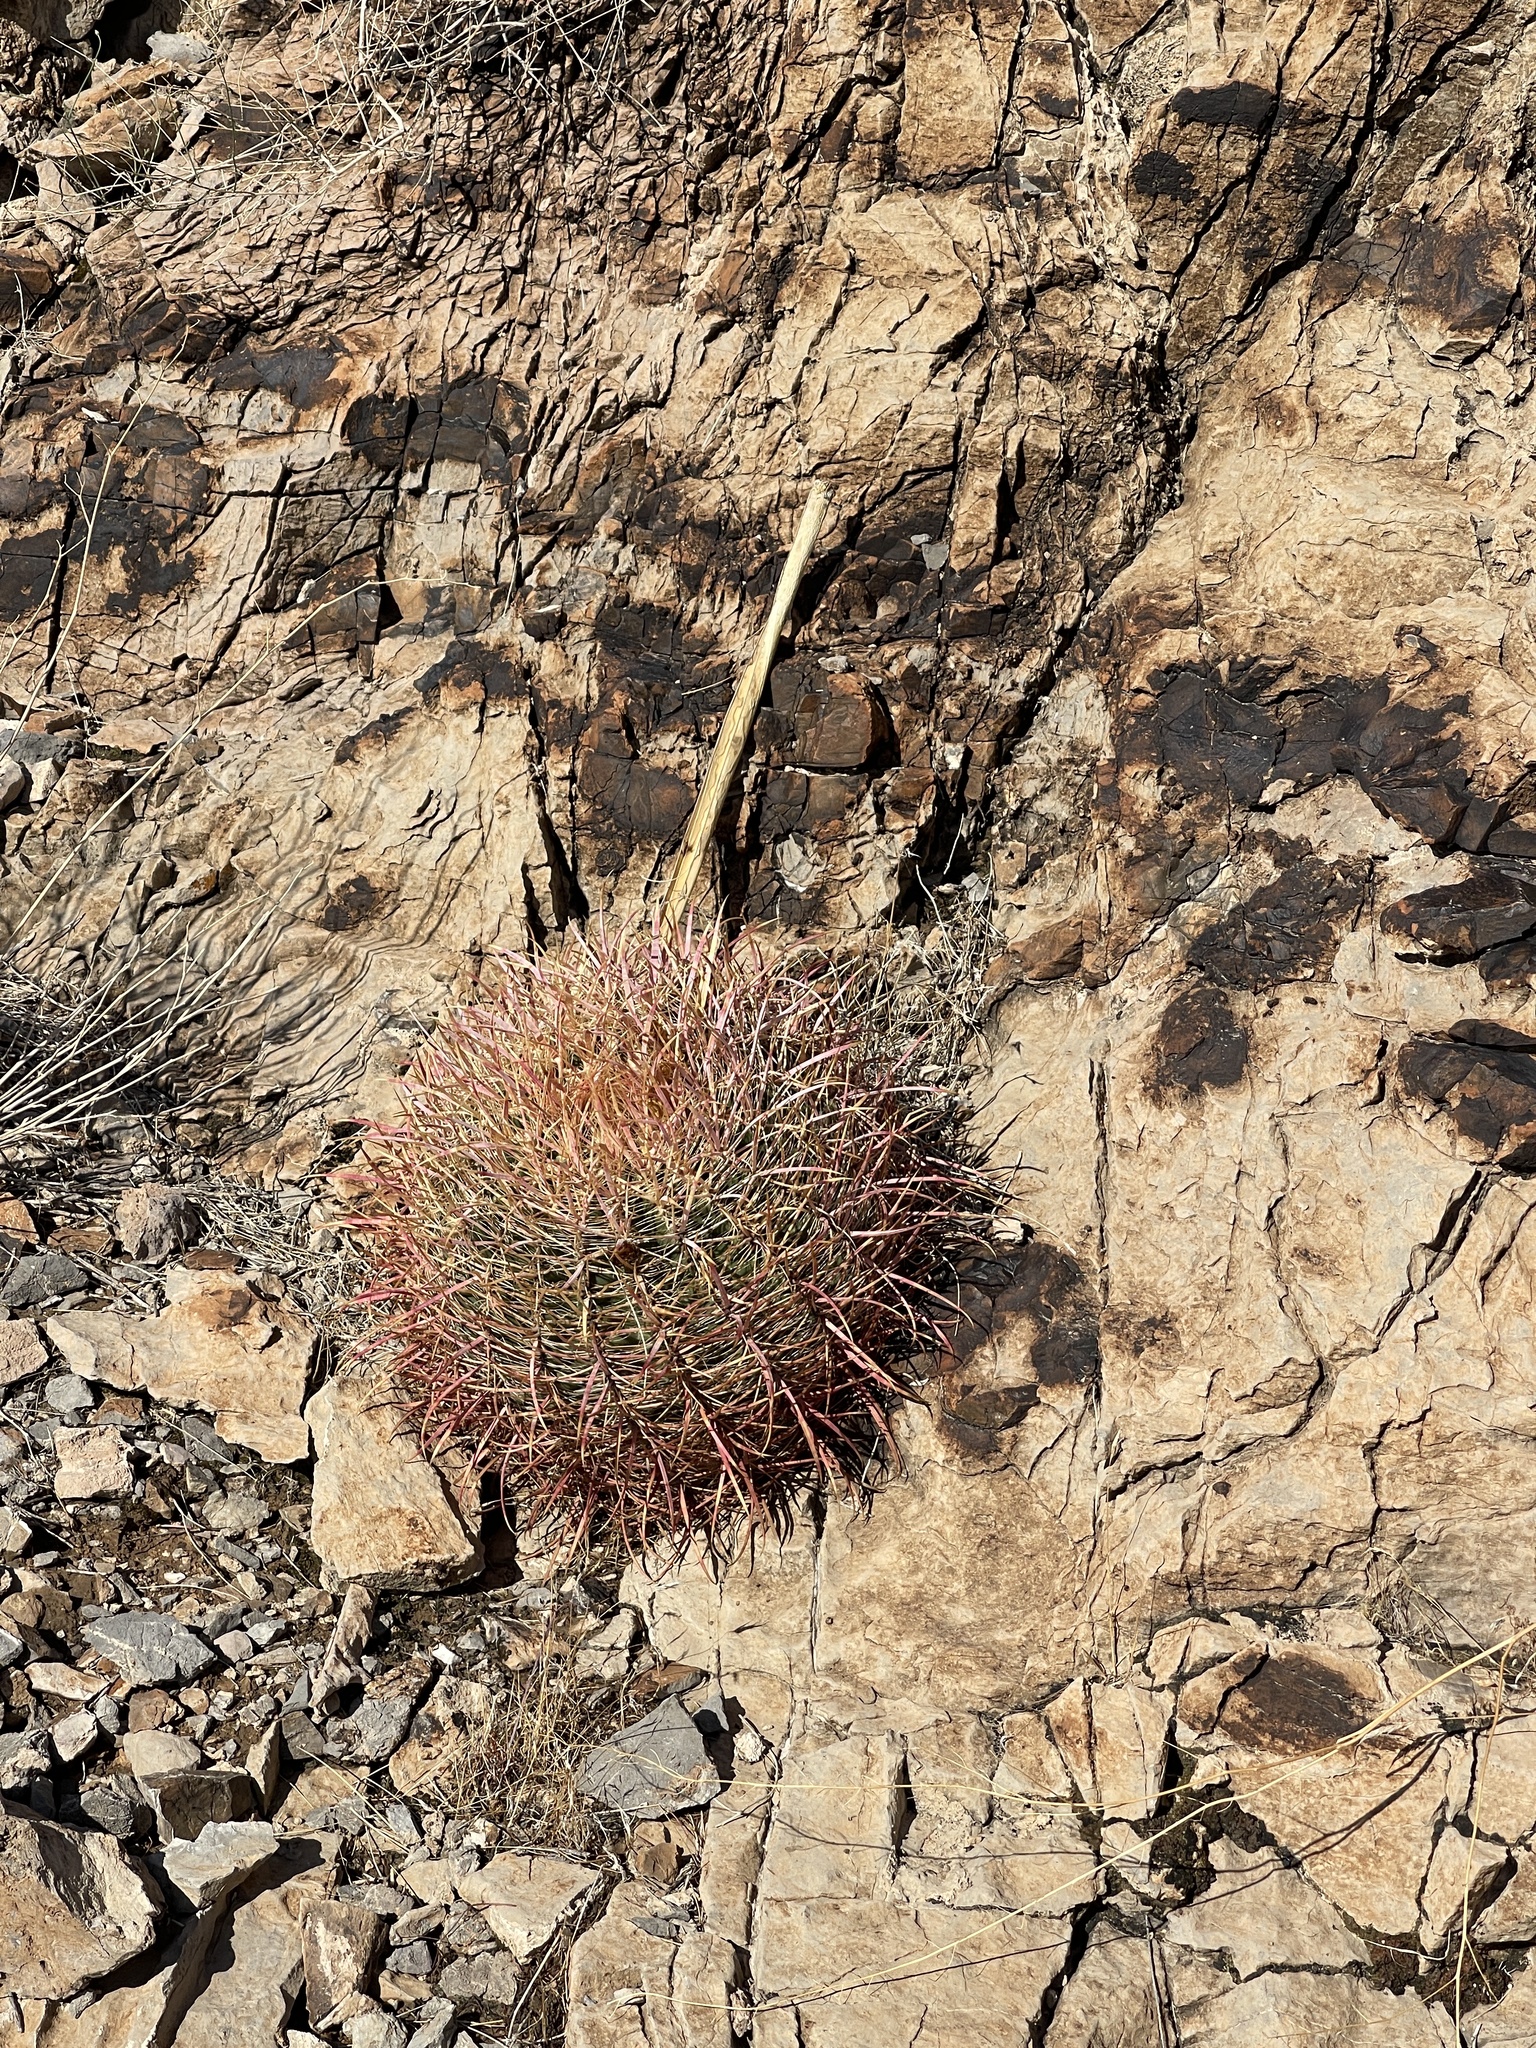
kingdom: Plantae
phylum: Tracheophyta
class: Magnoliopsida
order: Caryophyllales
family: Cactaceae
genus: Ferocactus
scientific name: Ferocactus cylindraceus
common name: California barrel cactus
